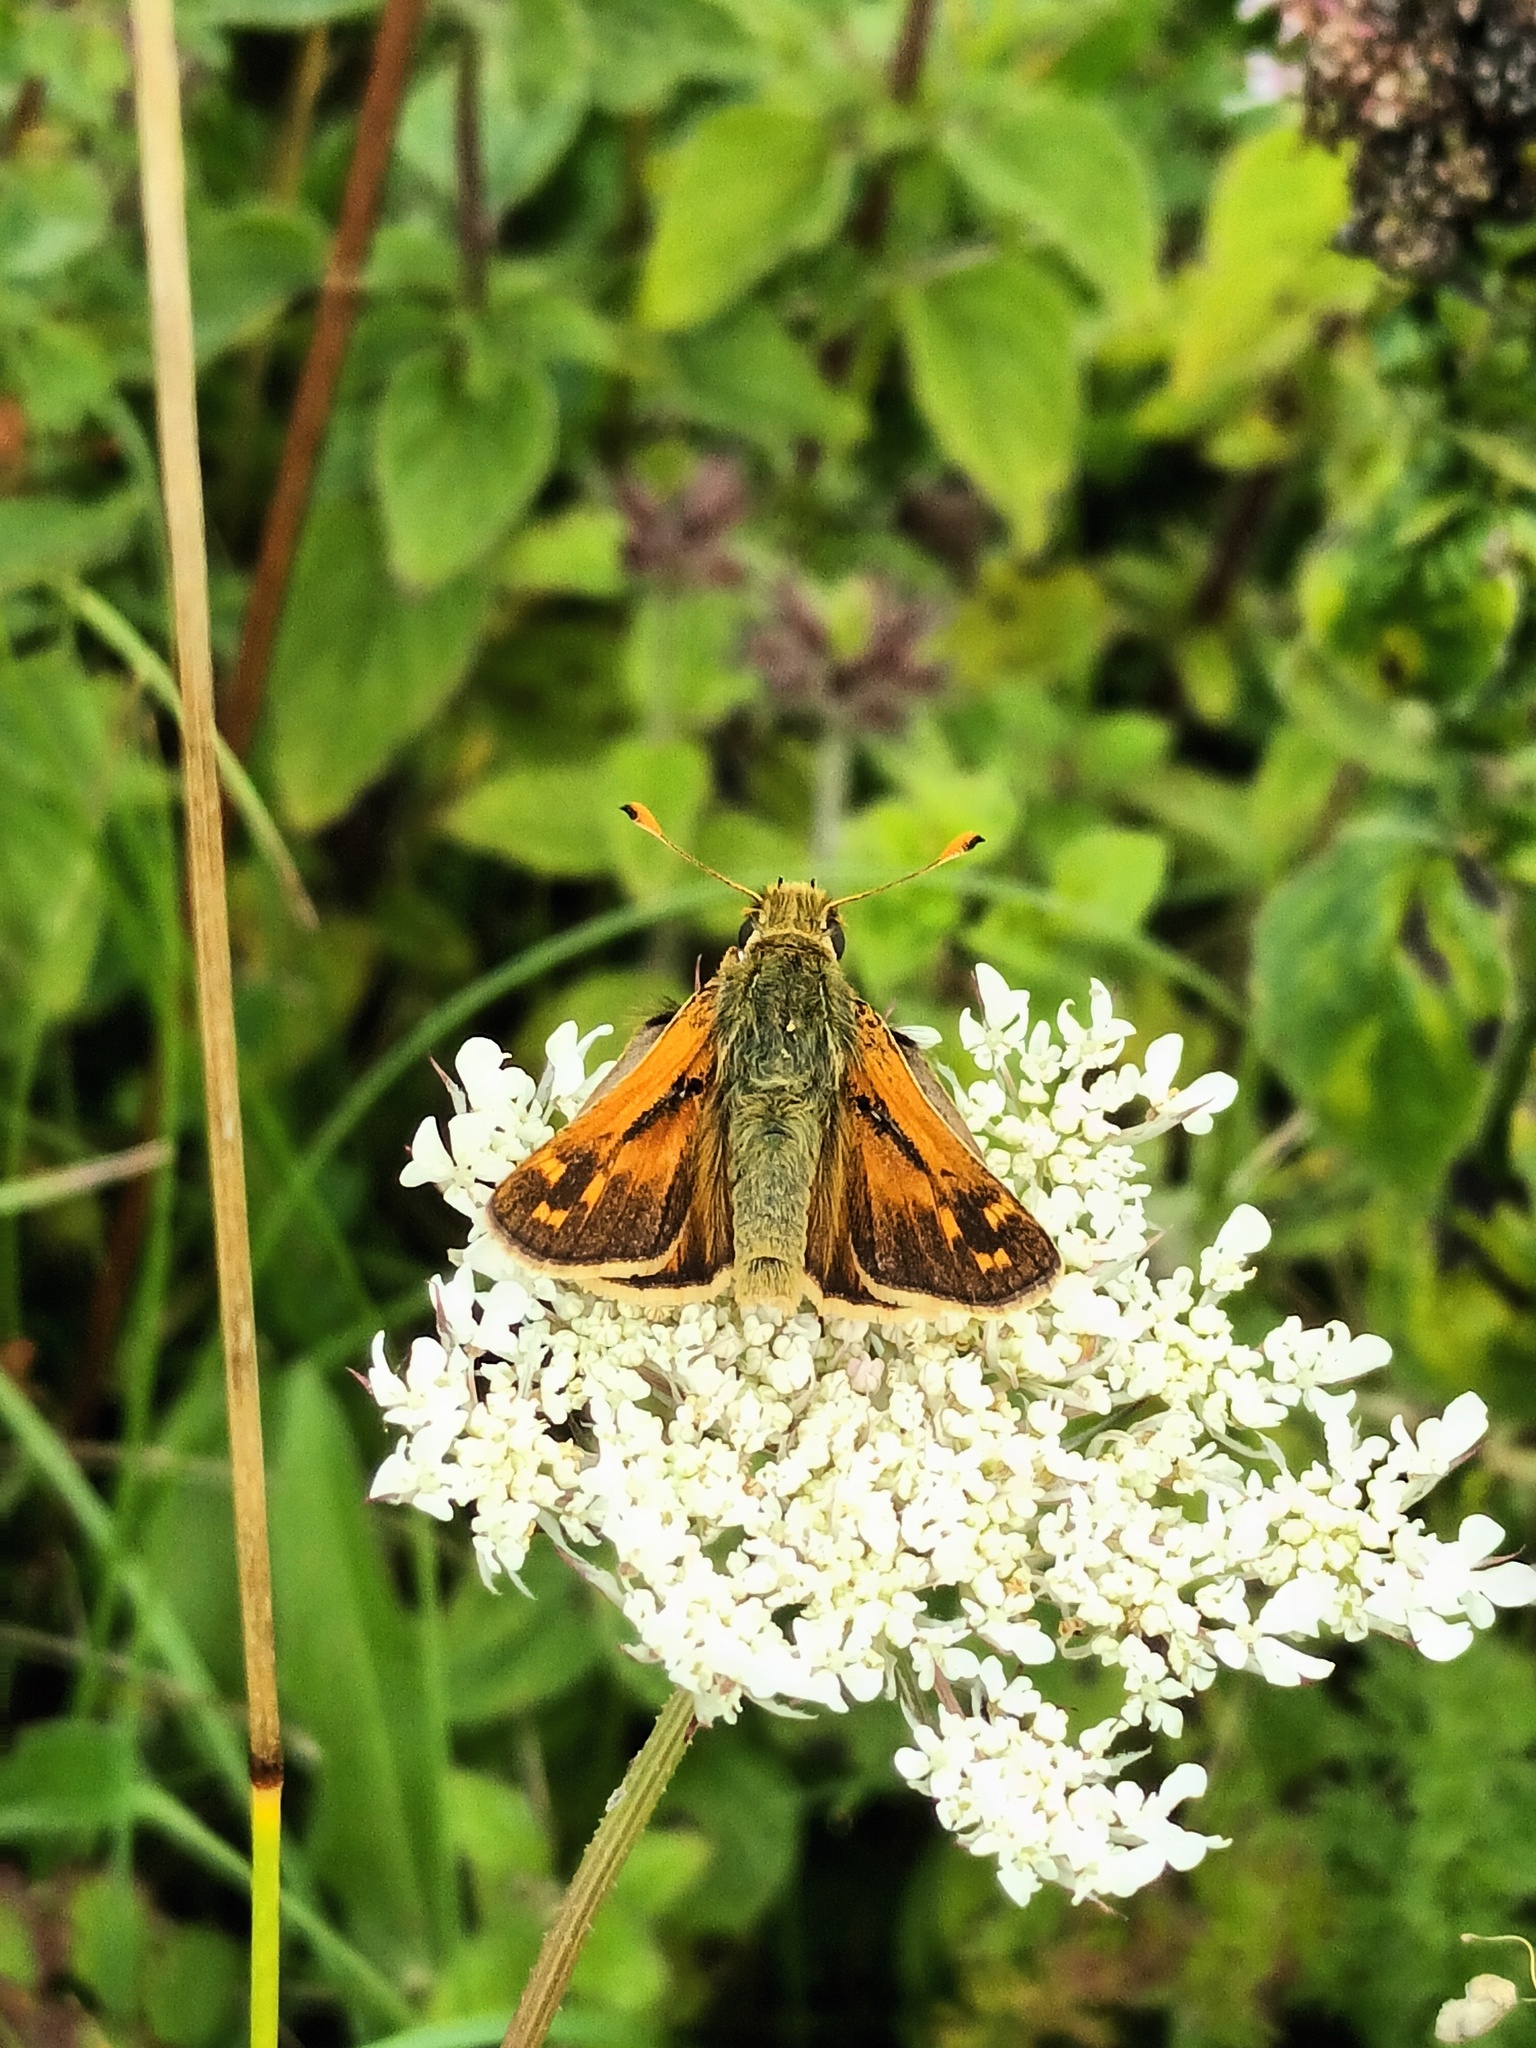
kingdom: Animalia
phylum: Arthropoda
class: Insecta
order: Lepidoptera
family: Hesperiidae
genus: Hesperia
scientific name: Hesperia comma
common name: Common branded skipper
